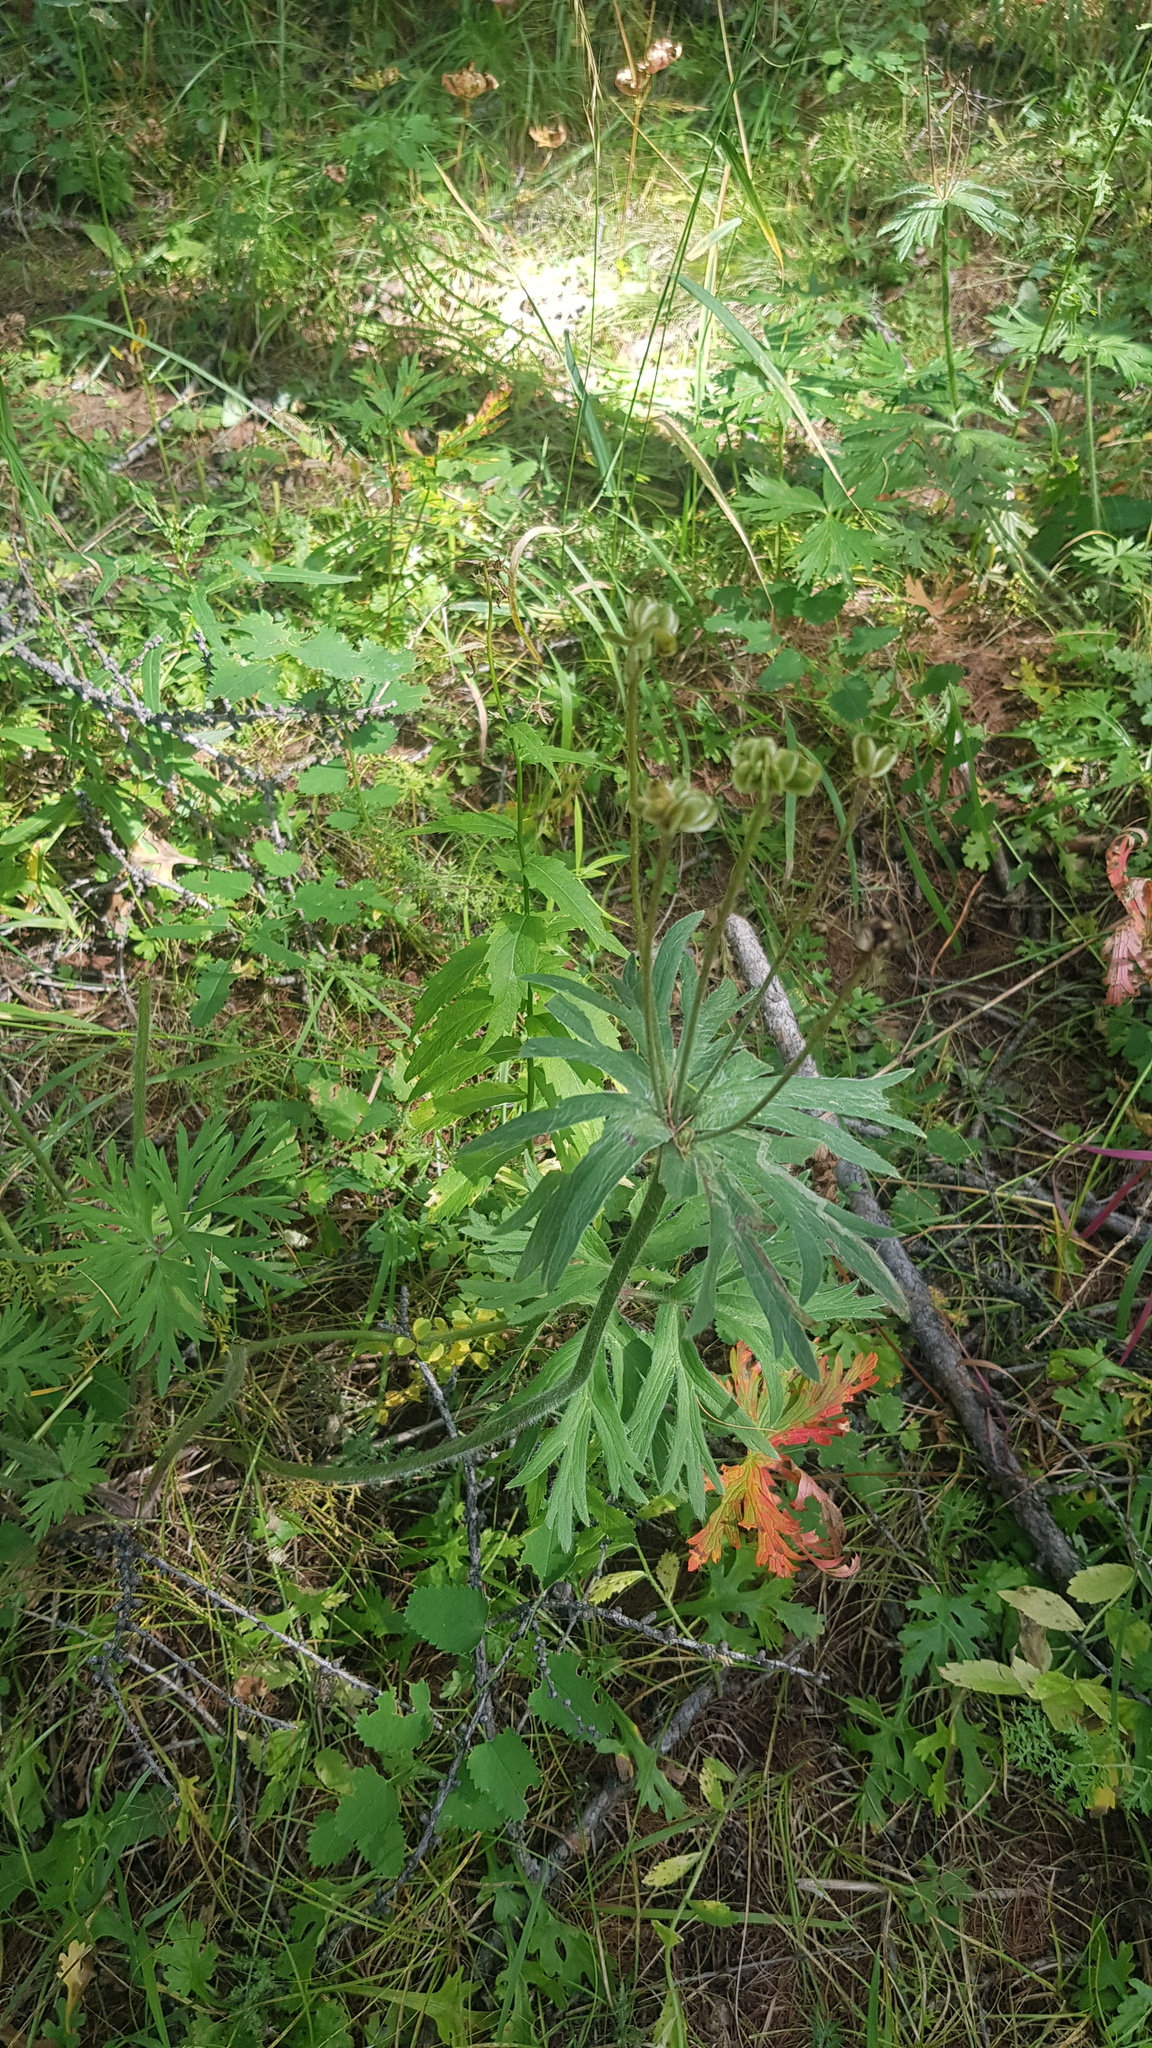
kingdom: Plantae
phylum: Tracheophyta
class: Magnoliopsida
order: Ranunculales
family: Ranunculaceae
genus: Anemonastrum
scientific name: Anemonastrum narcissiflorum
